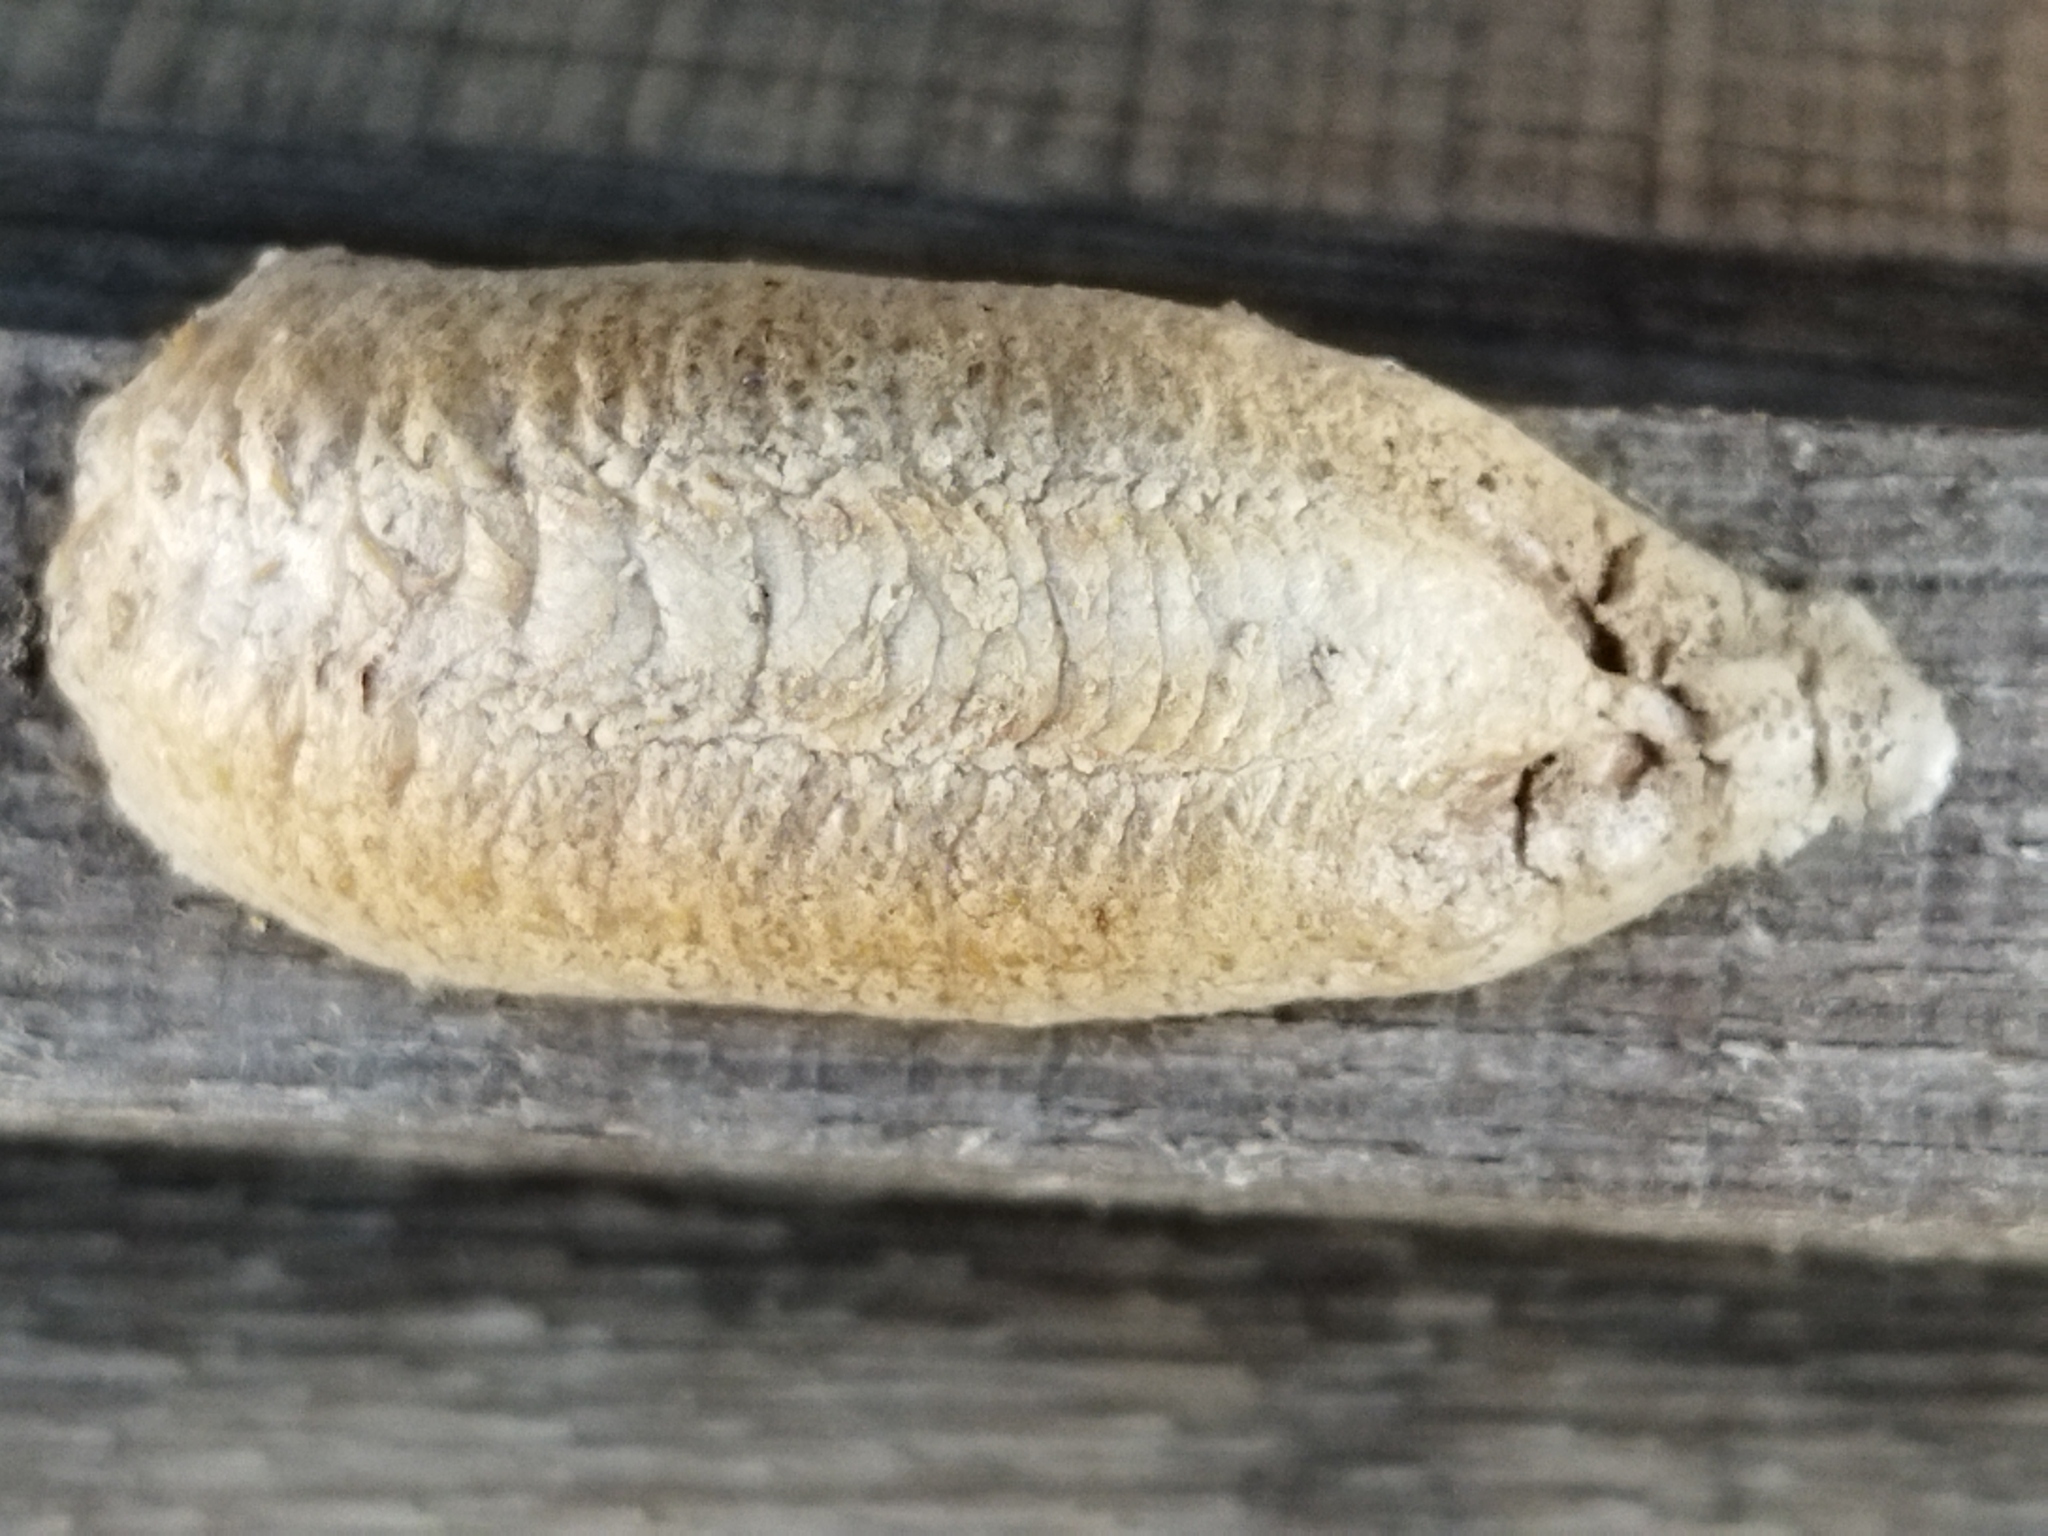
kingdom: Animalia
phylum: Arthropoda
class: Insecta
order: Mantodea
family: Mantidae
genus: Mantis
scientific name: Mantis religiosa
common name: Praying mantis
